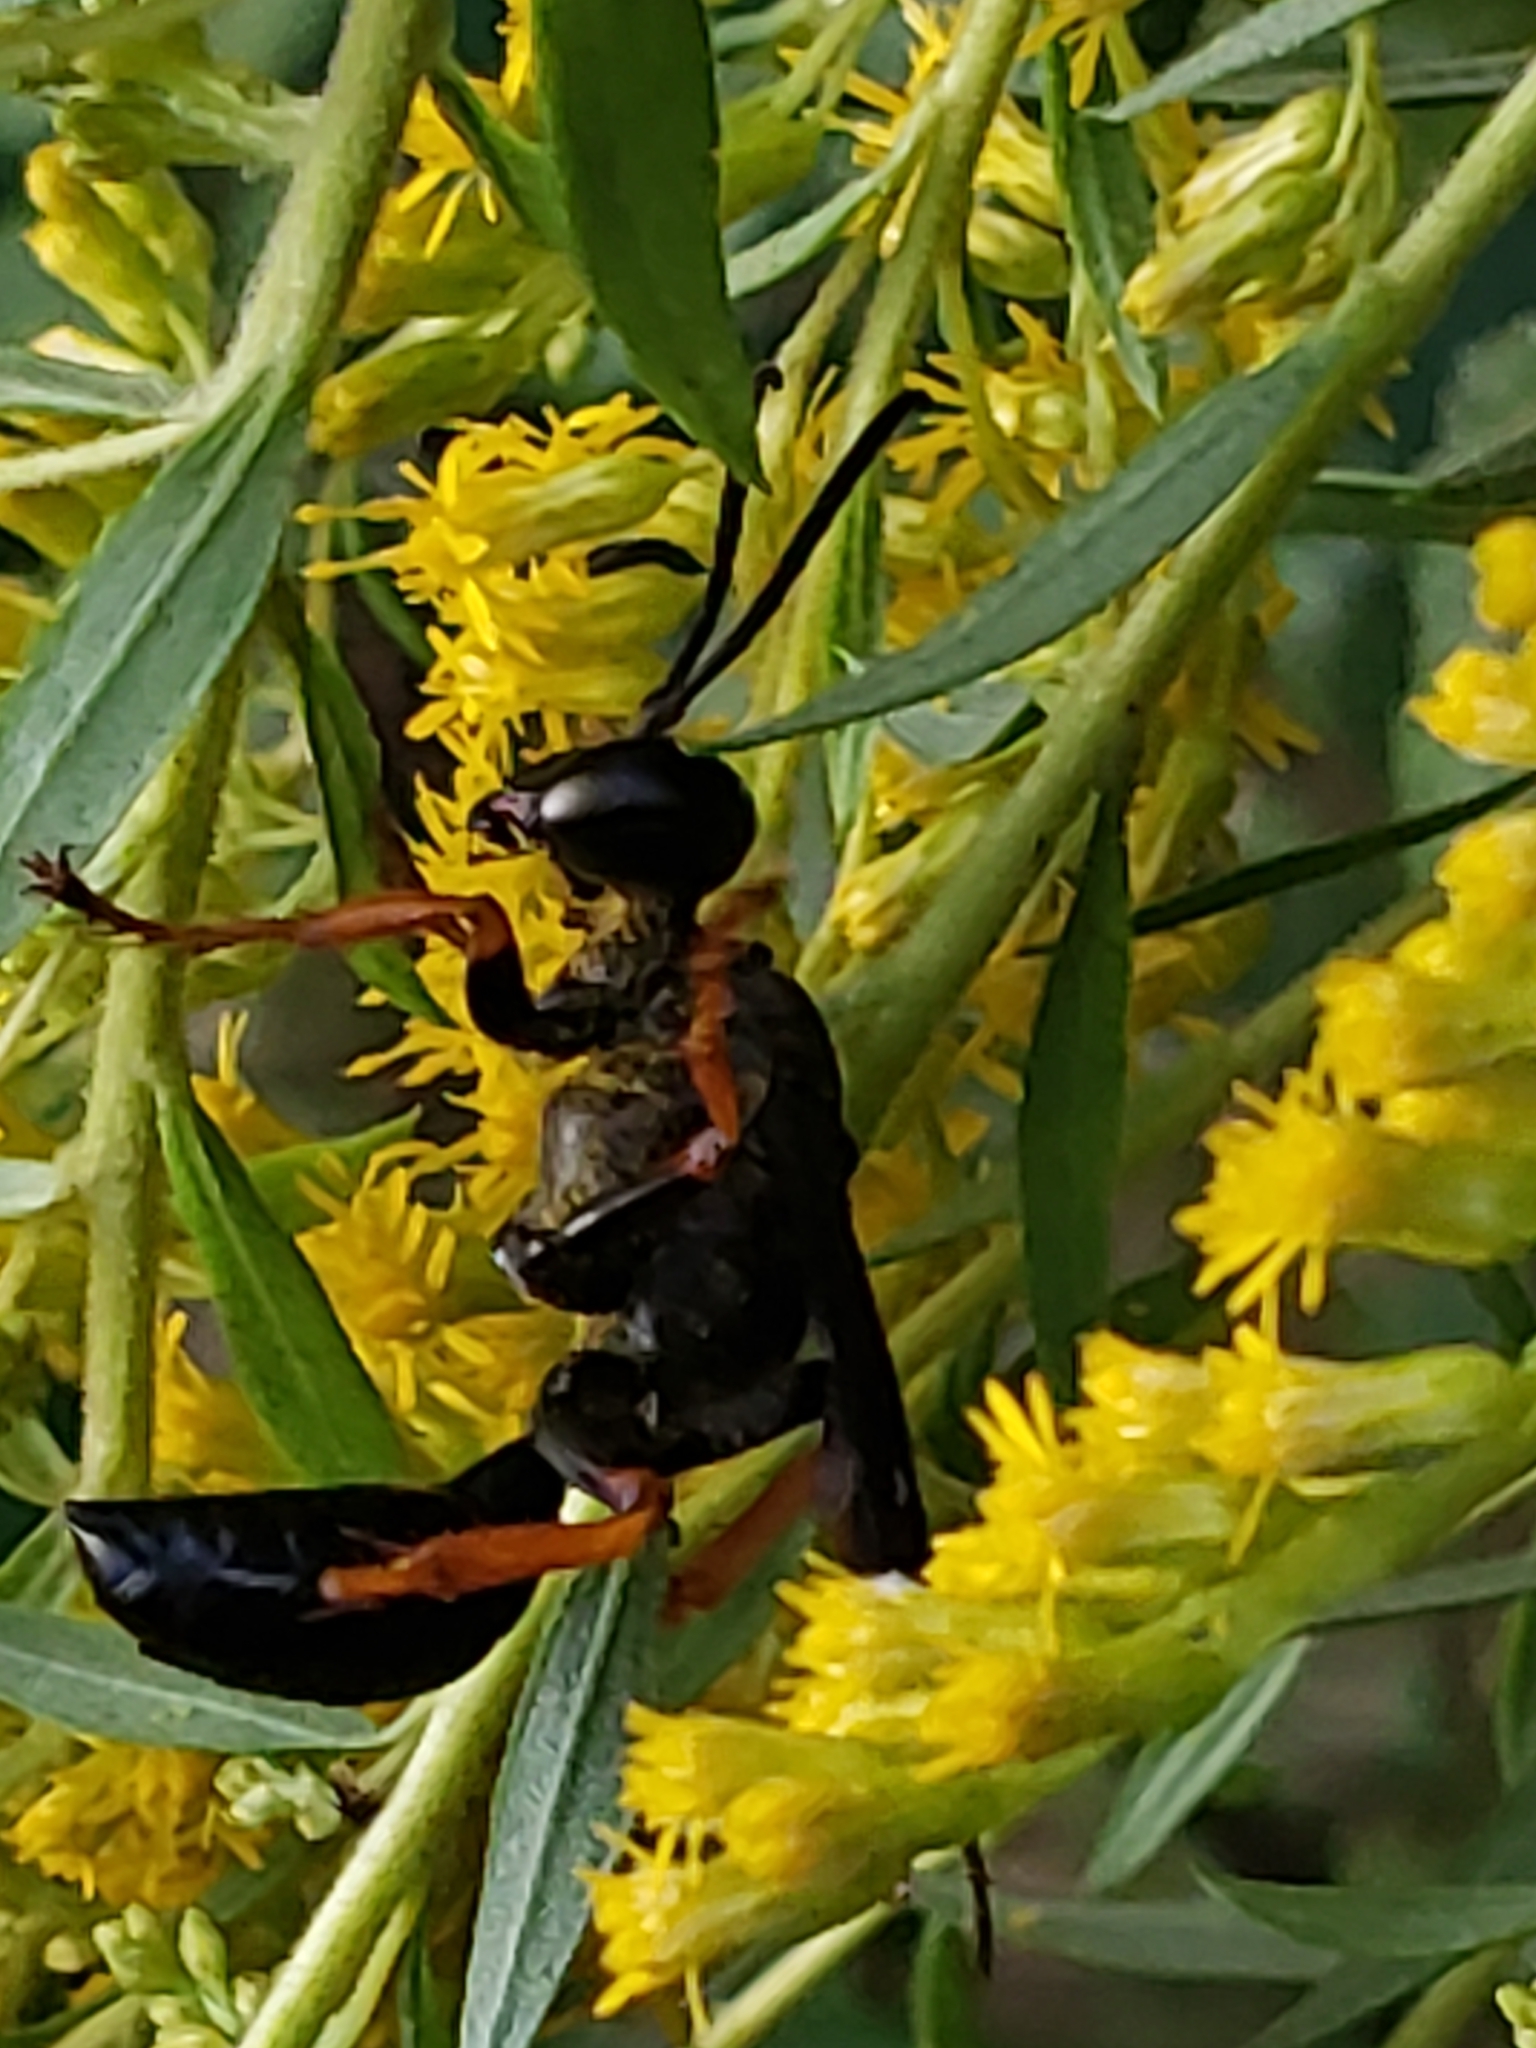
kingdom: Animalia
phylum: Arthropoda
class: Insecta
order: Hymenoptera
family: Sphecidae
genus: Sphex
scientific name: Sphex nudus
